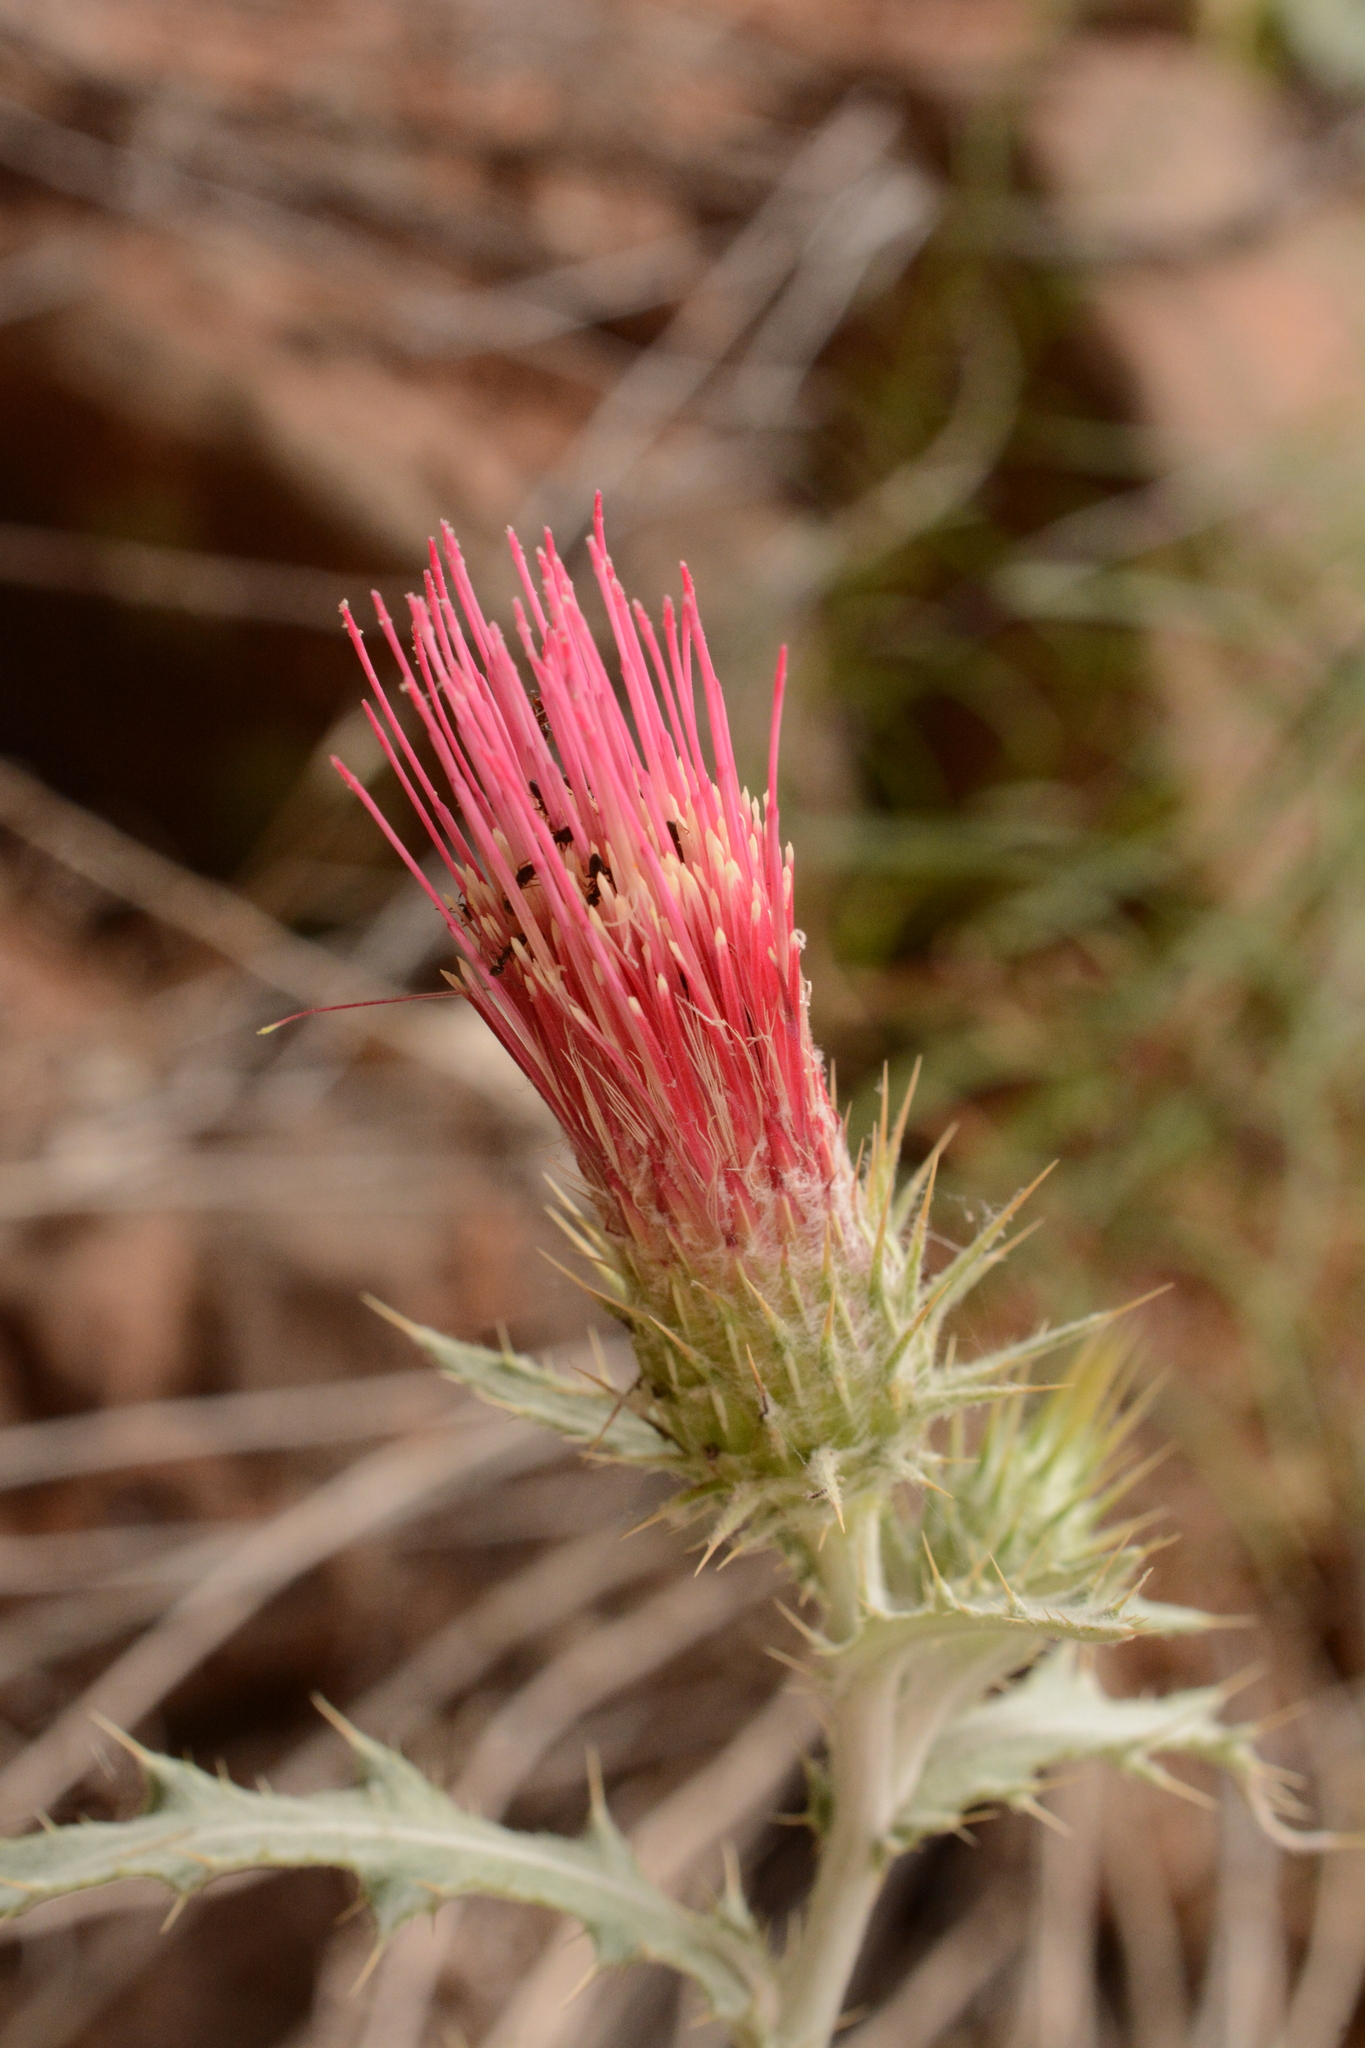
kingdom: Plantae
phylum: Tracheophyta
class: Magnoliopsida
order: Asterales
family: Asteraceae
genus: Cirsium
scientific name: Cirsium arizonicum
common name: Arizona thistle
